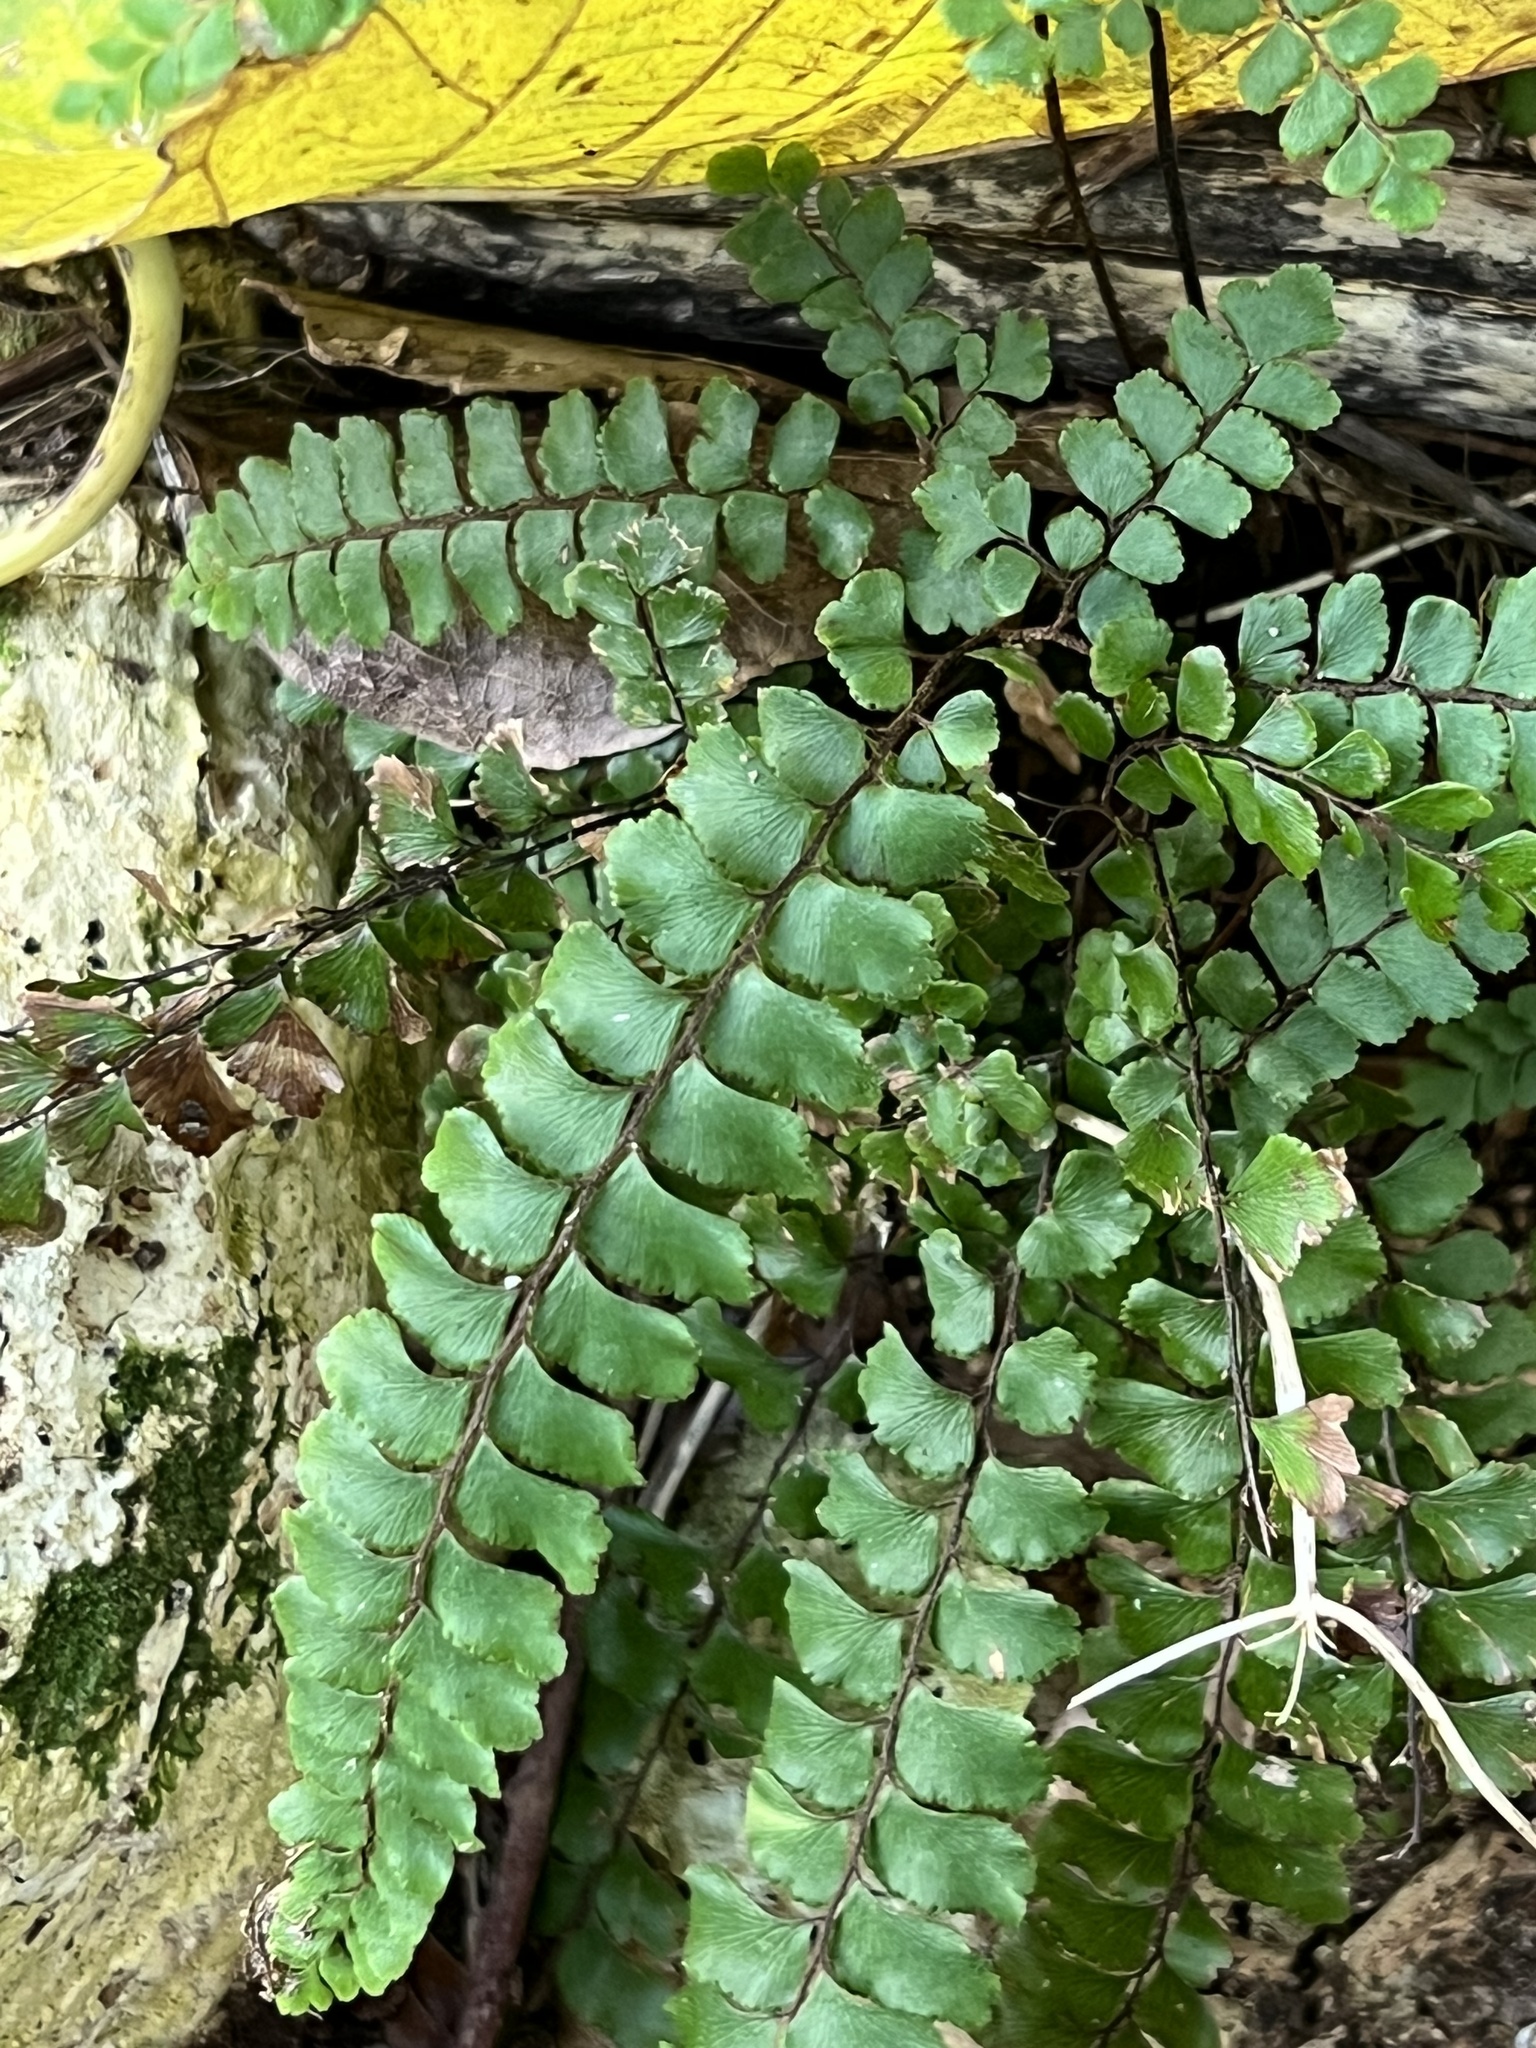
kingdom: Plantae
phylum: Tracheophyta
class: Polypodiopsida
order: Polypodiales
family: Pteridaceae
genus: Adiantum
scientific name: Adiantum hispidulum
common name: Rough maidenhair
